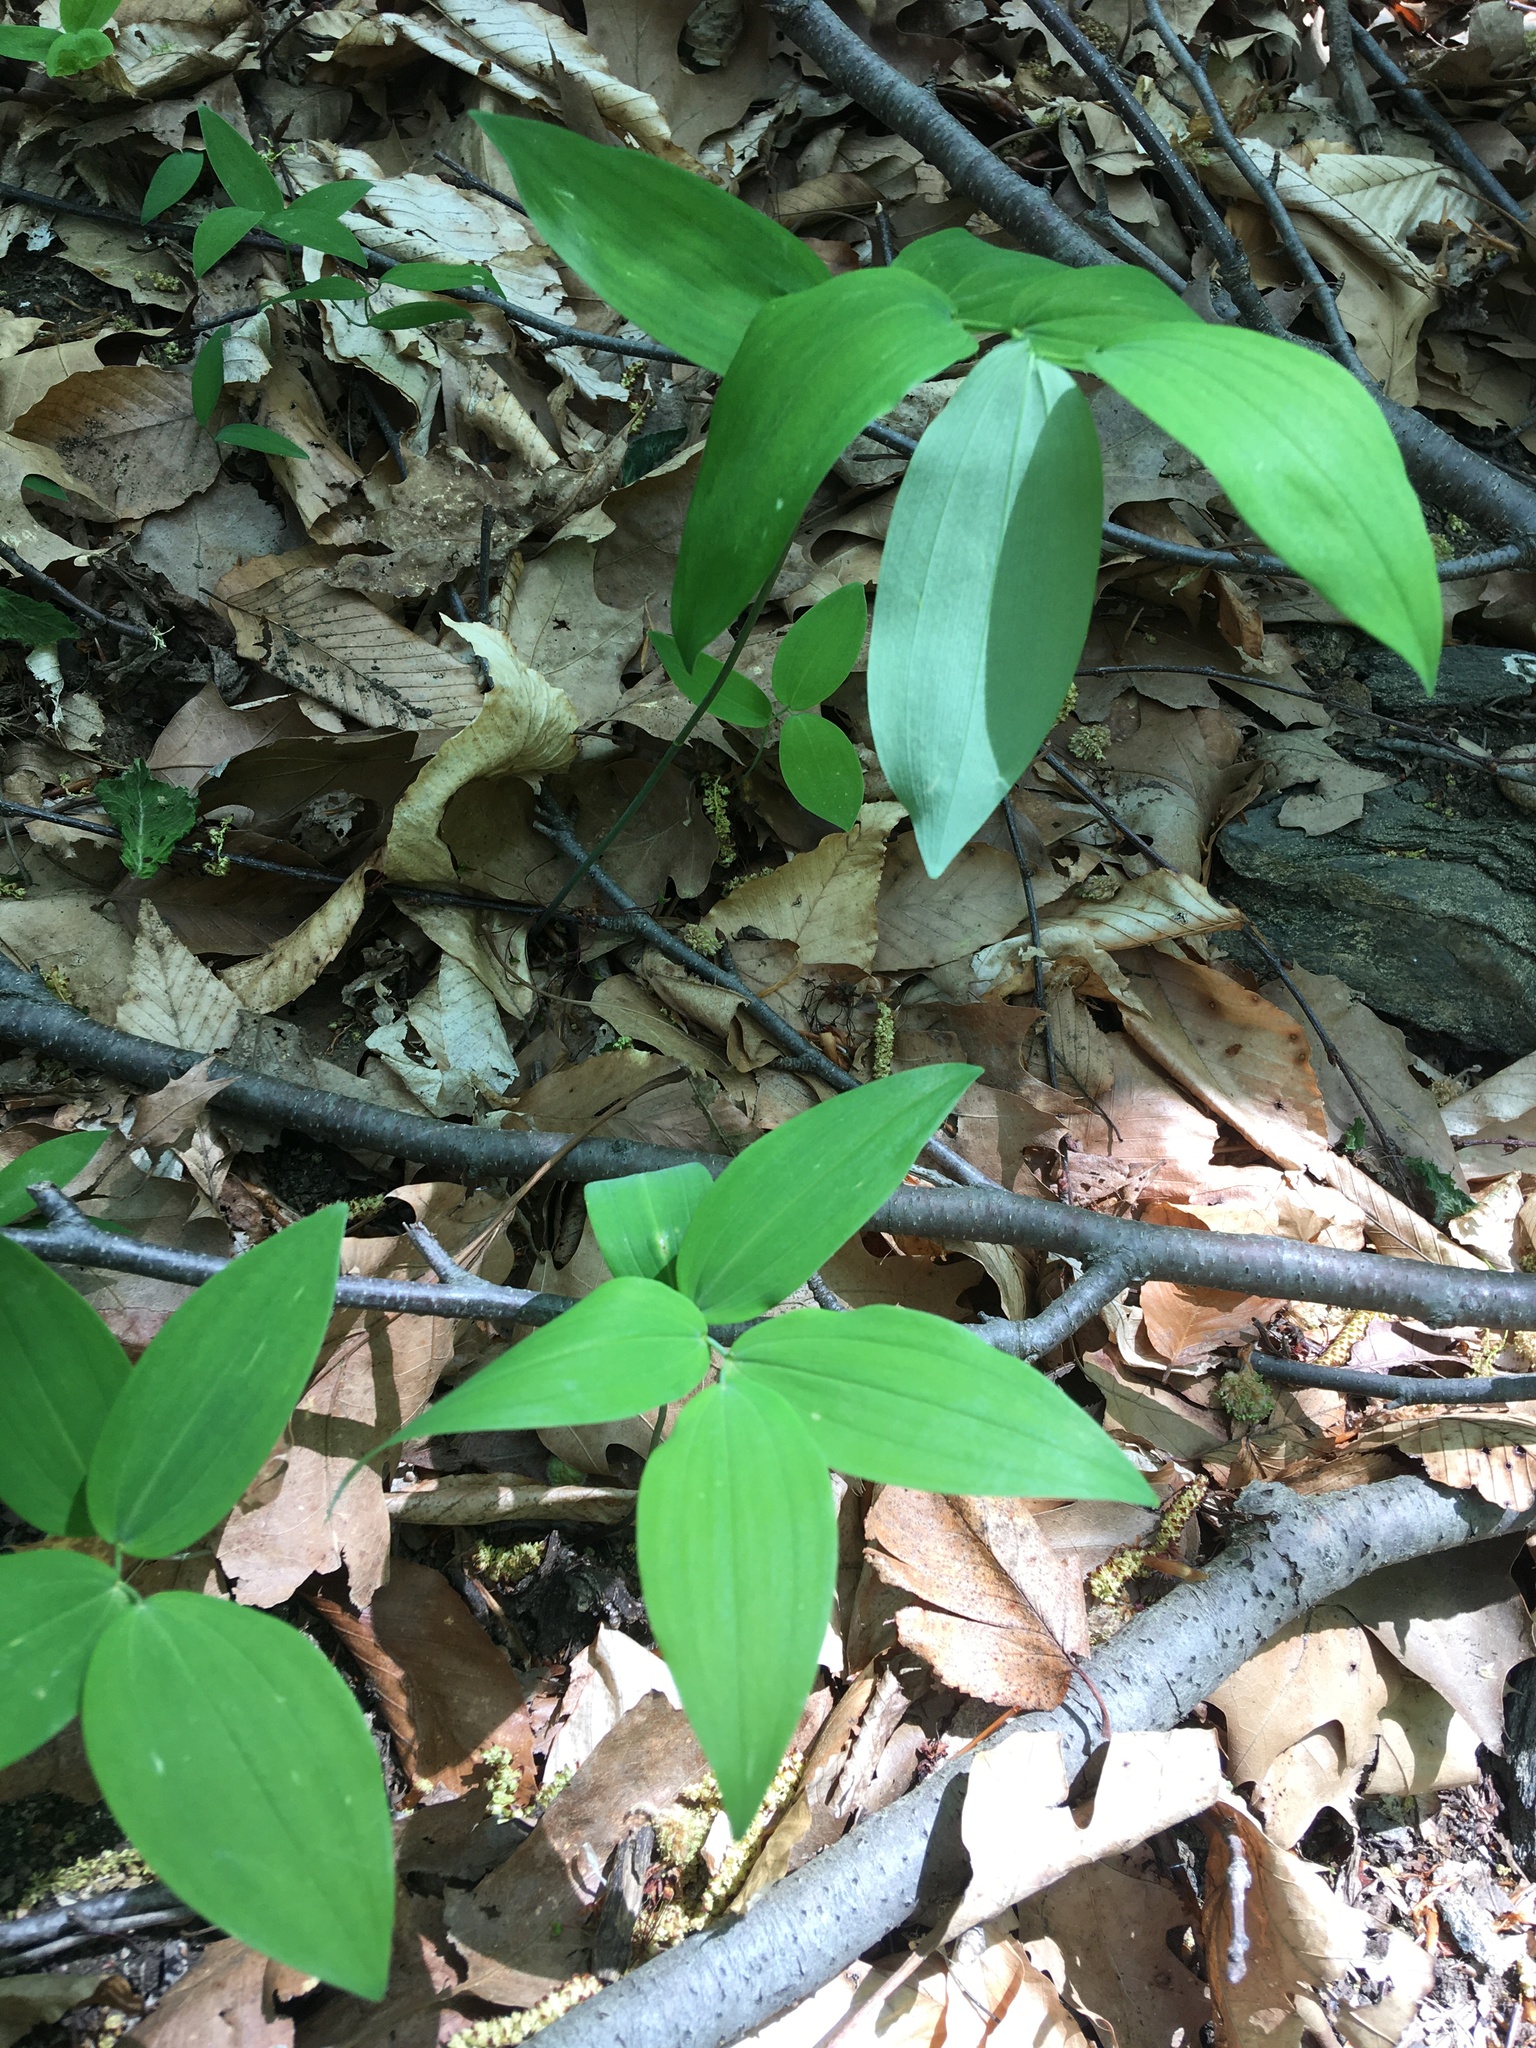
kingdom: Plantae
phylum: Tracheophyta
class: Liliopsida
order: Asparagales
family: Asparagaceae
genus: Polygonatum
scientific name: Polygonatum pubescens
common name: Downy solomon's seal
